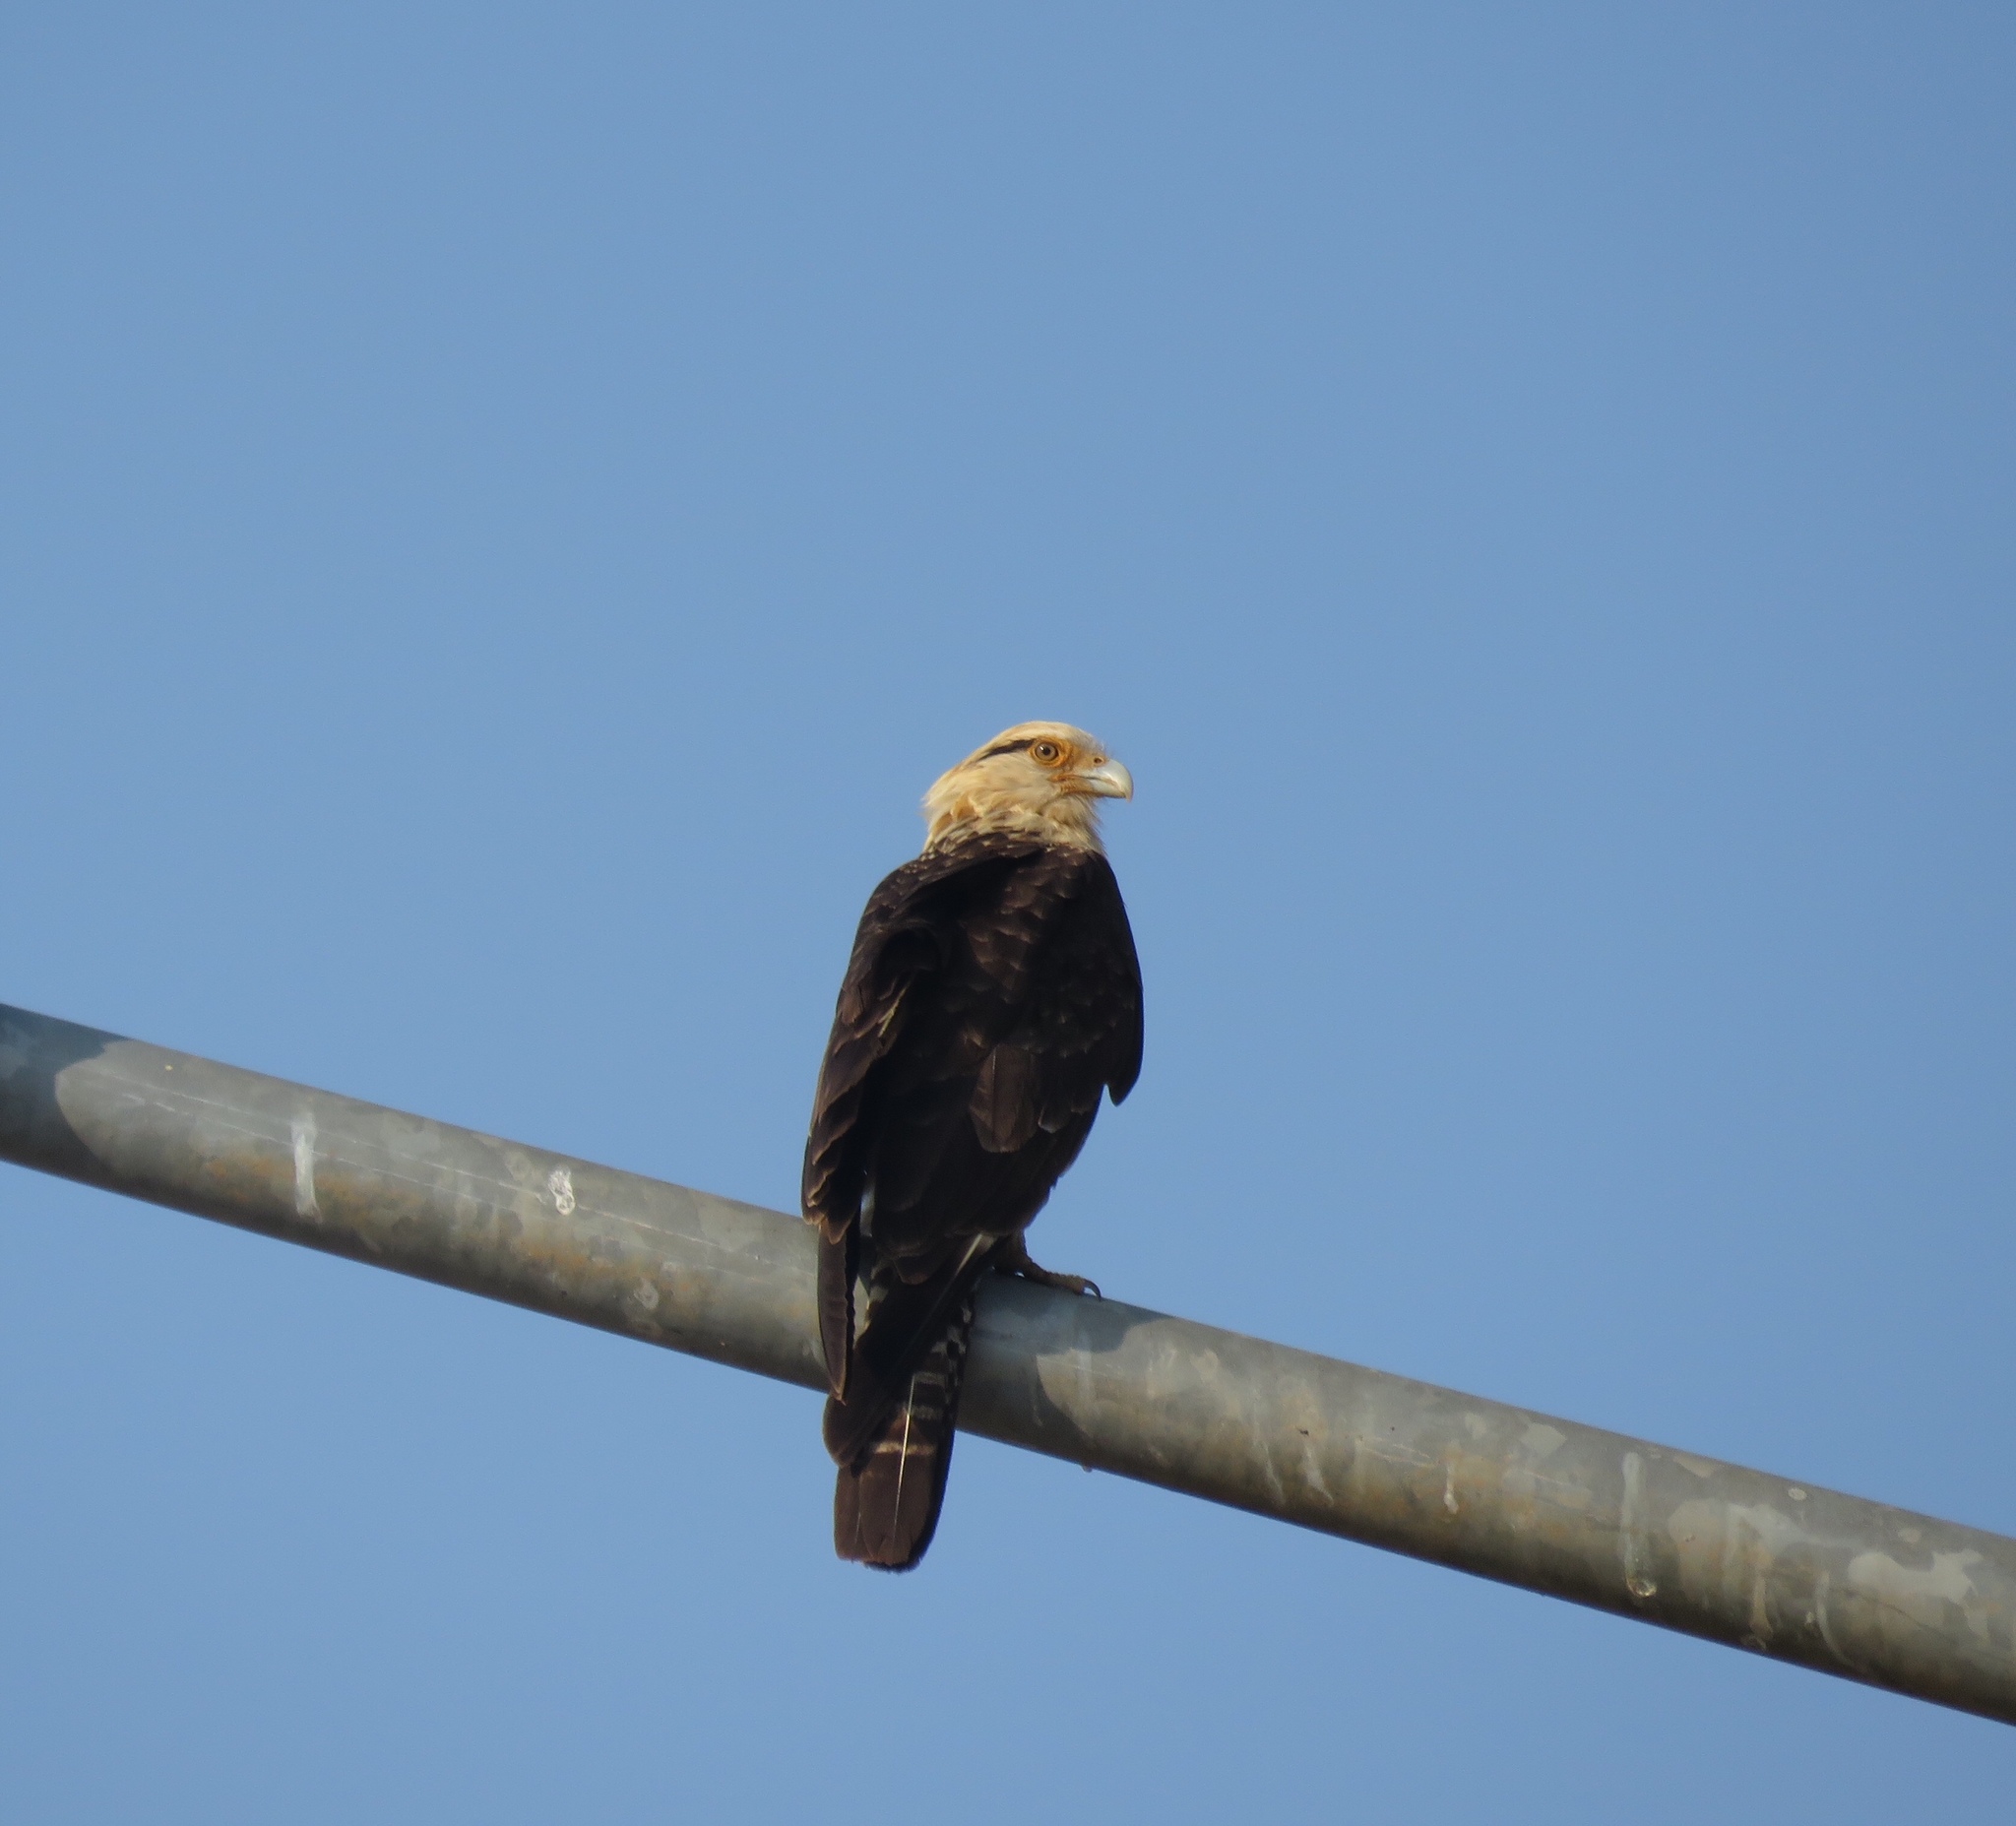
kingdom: Animalia
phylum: Chordata
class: Aves
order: Falconiformes
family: Falconidae
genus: Daptrius
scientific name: Daptrius
